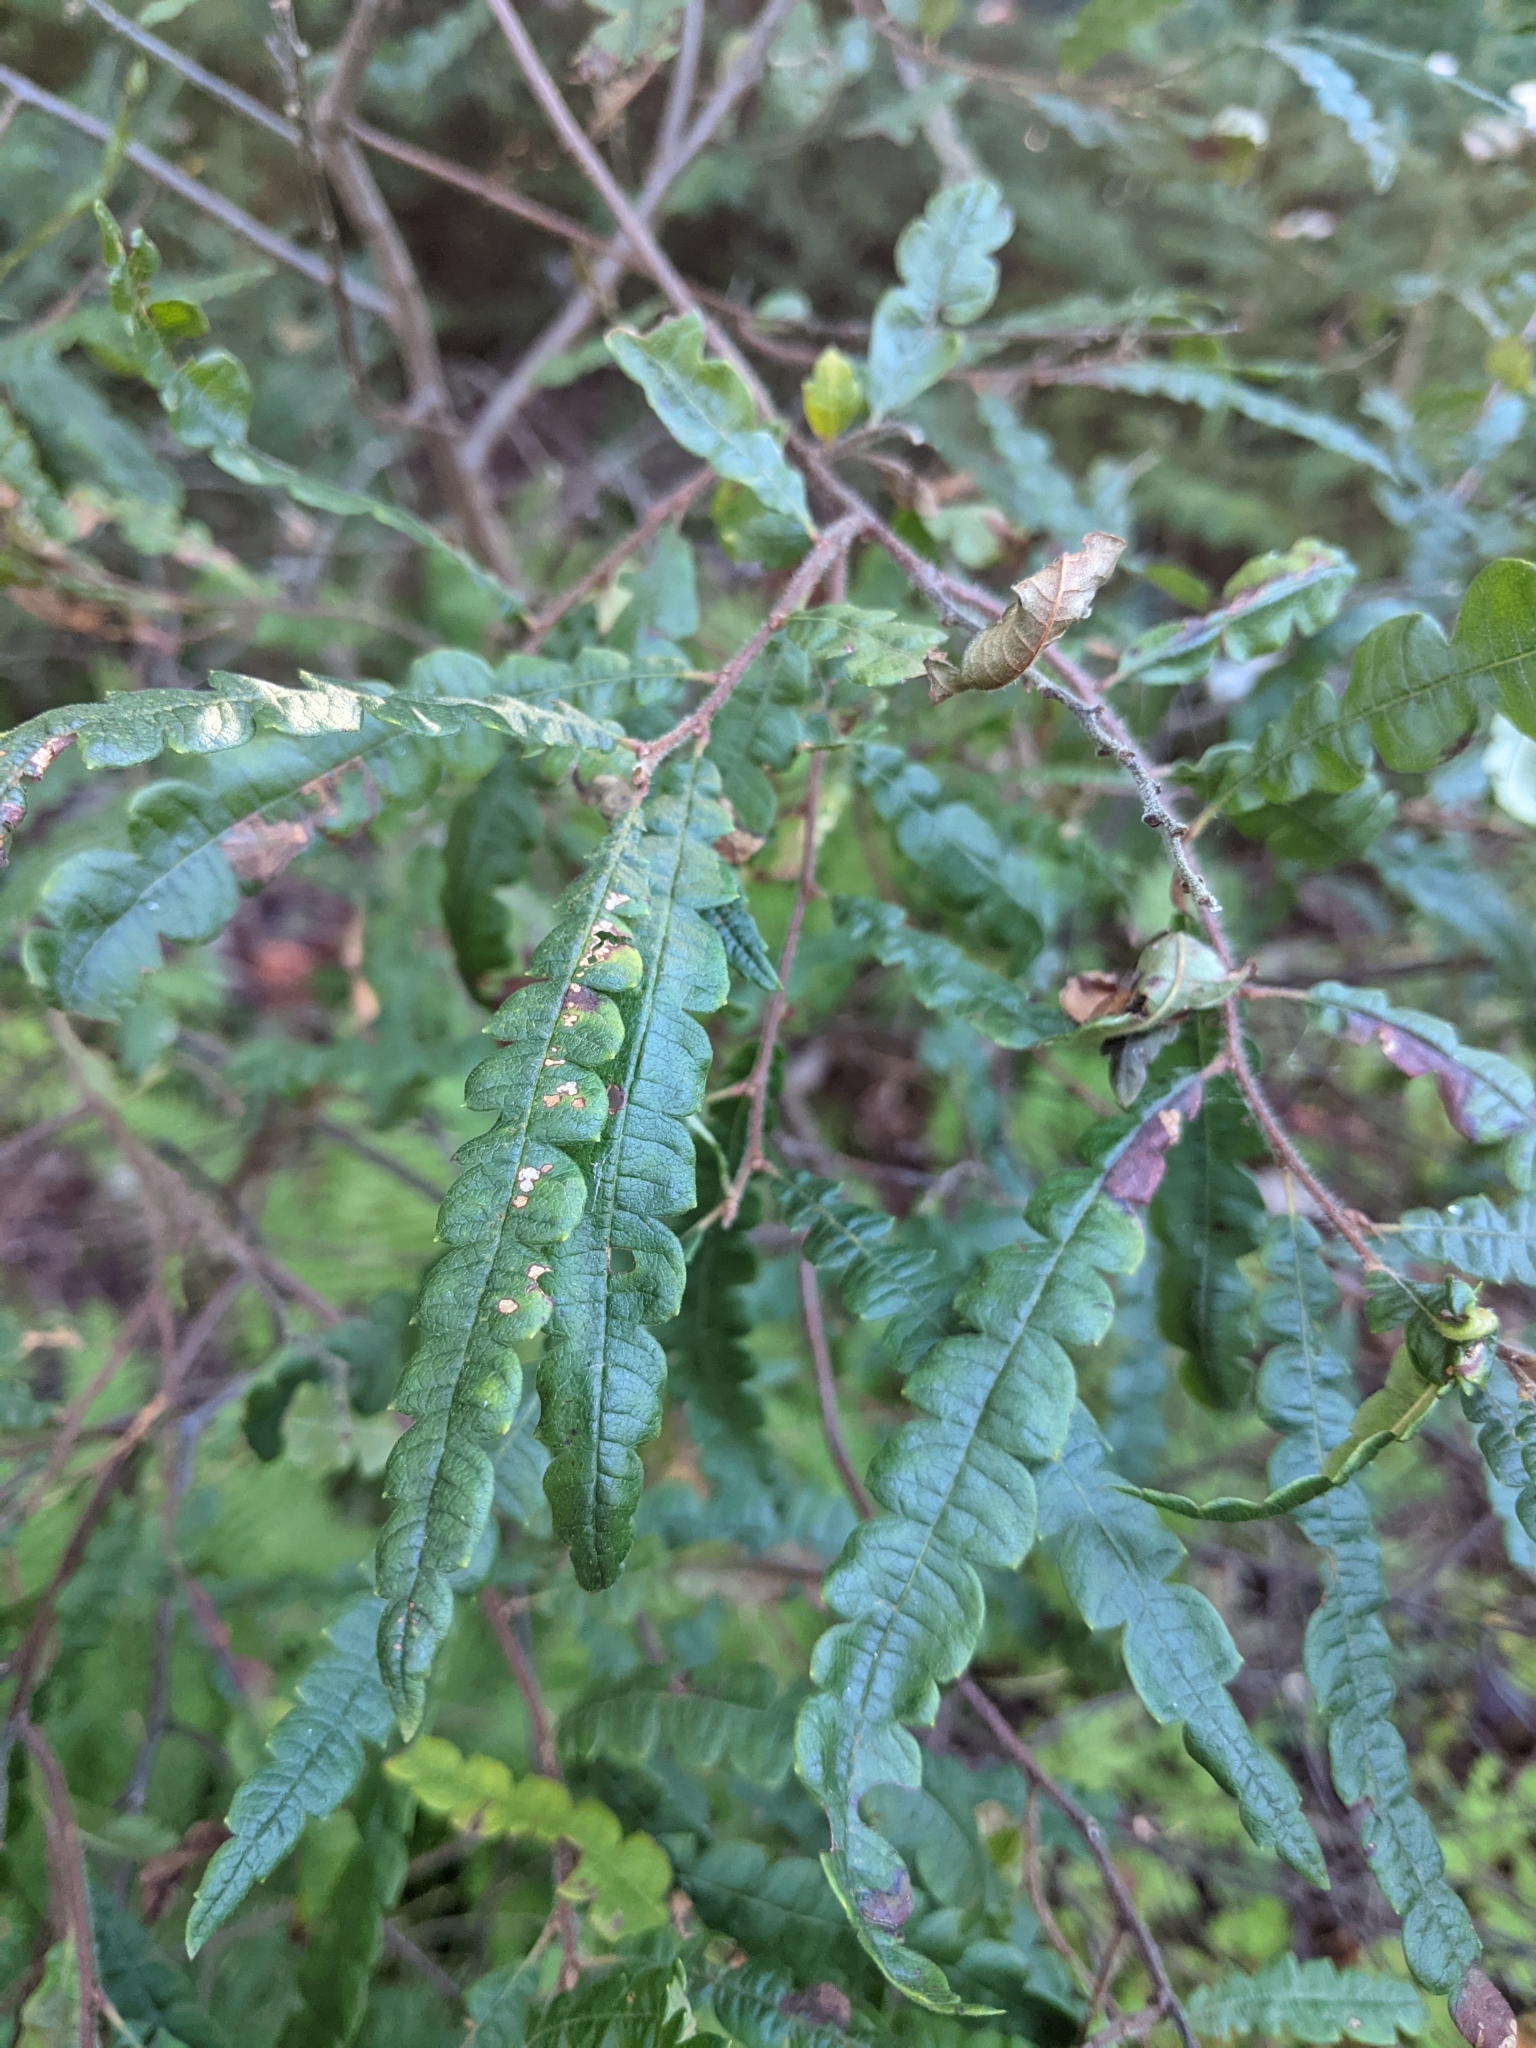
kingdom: Plantae
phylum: Tracheophyta
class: Magnoliopsida
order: Fagales
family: Myricaceae
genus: Comptonia
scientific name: Comptonia peregrina
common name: Sweet-fern
